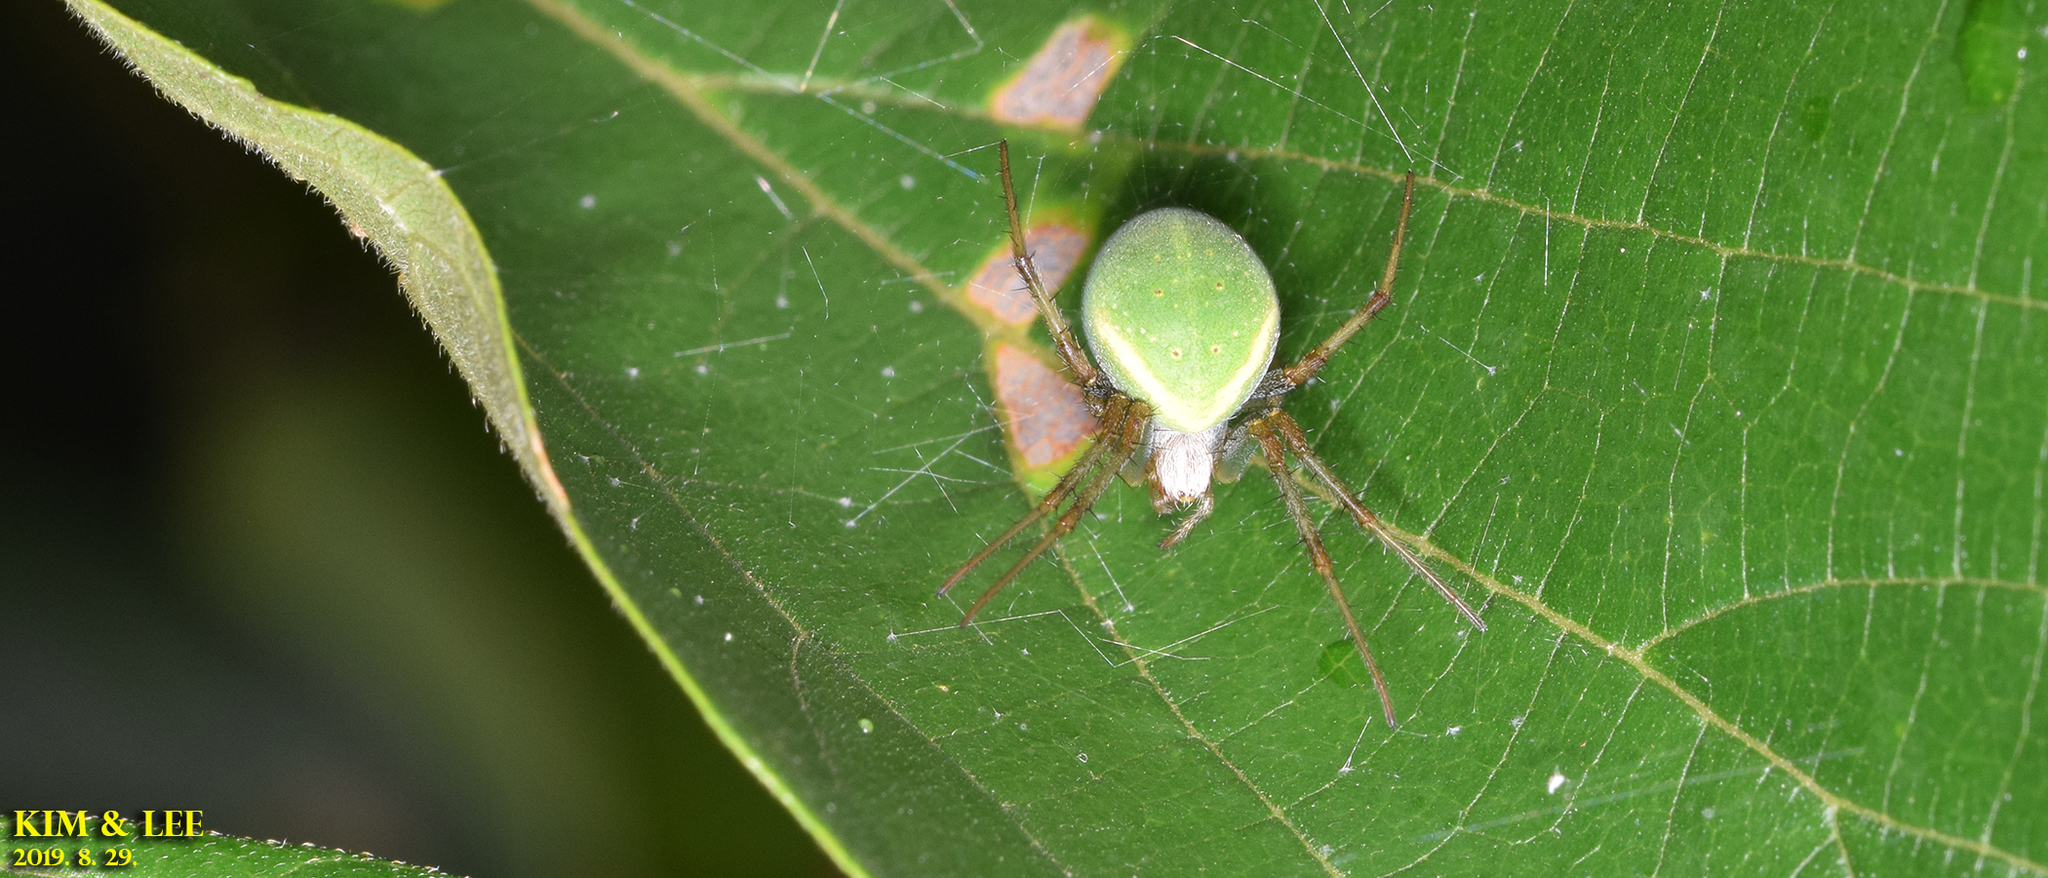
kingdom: Animalia
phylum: Arthropoda
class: Arachnida
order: Araneae
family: Araneidae
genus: Neoscona
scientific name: Neoscona scylloides
